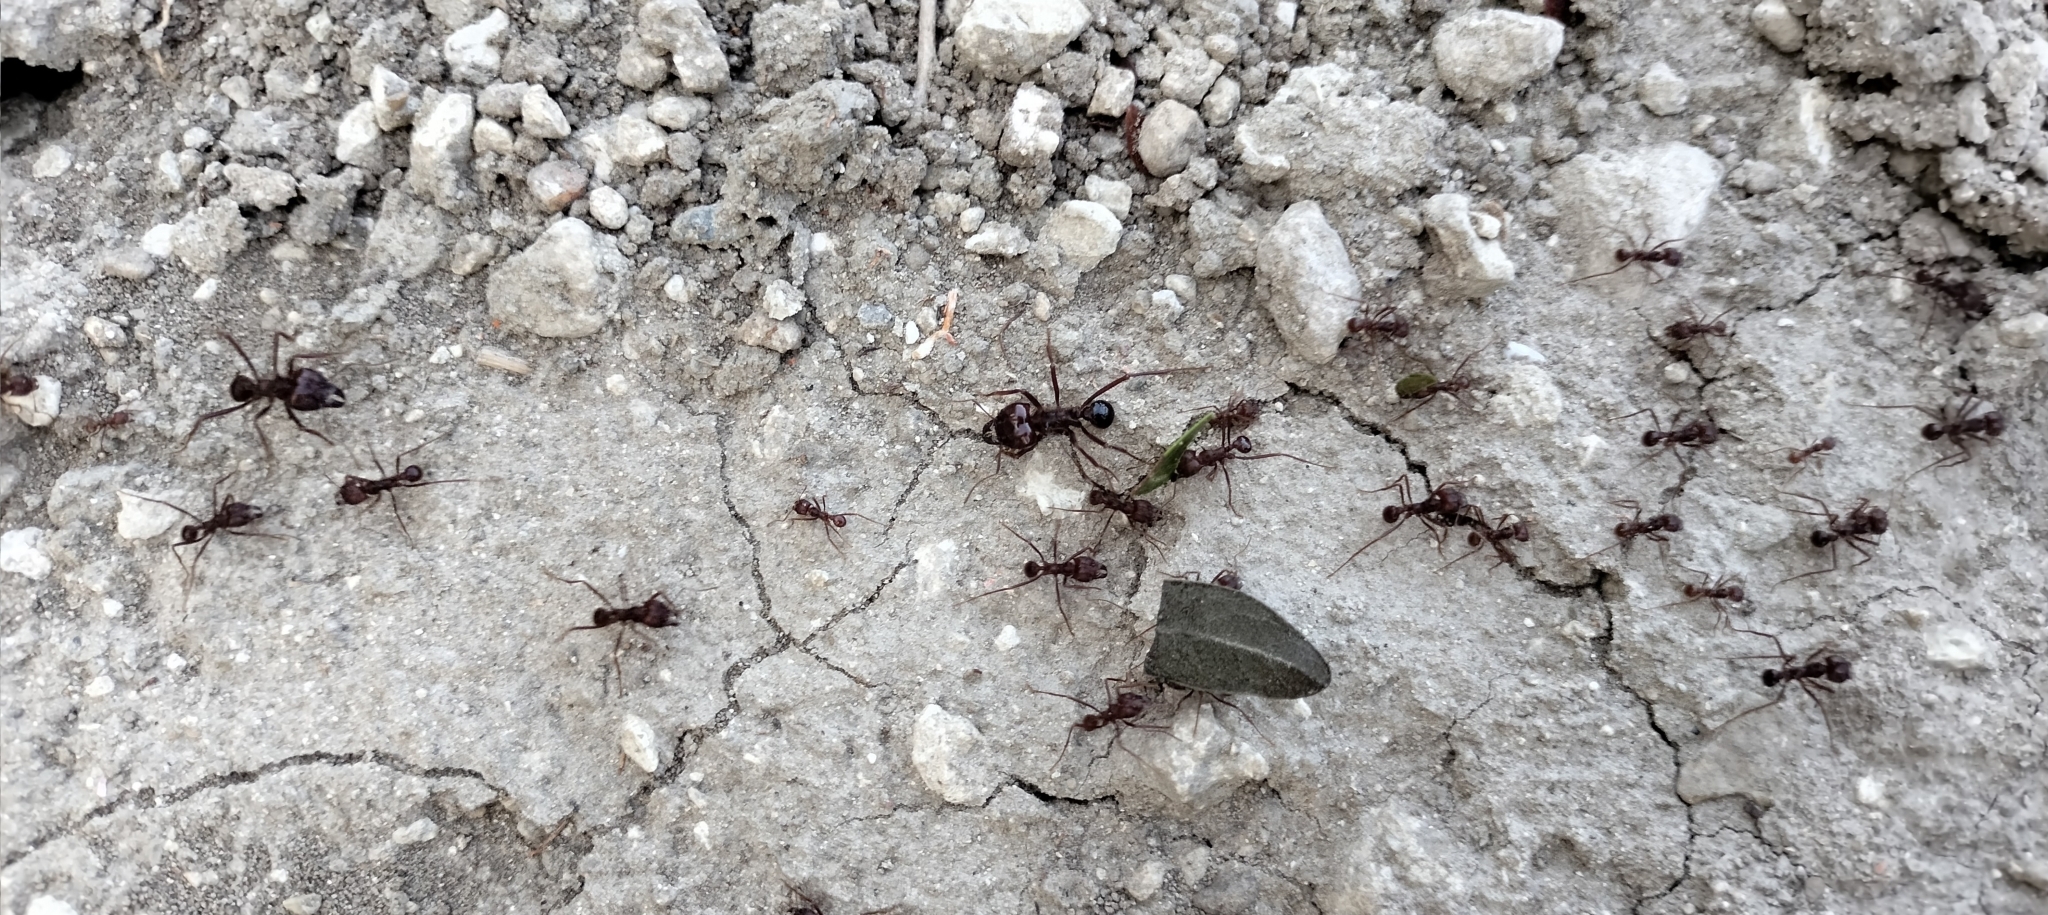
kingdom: Animalia
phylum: Arthropoda
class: Insecta
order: Hymenoptera
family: Formicidae
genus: Atta
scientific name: Atta mexicana
